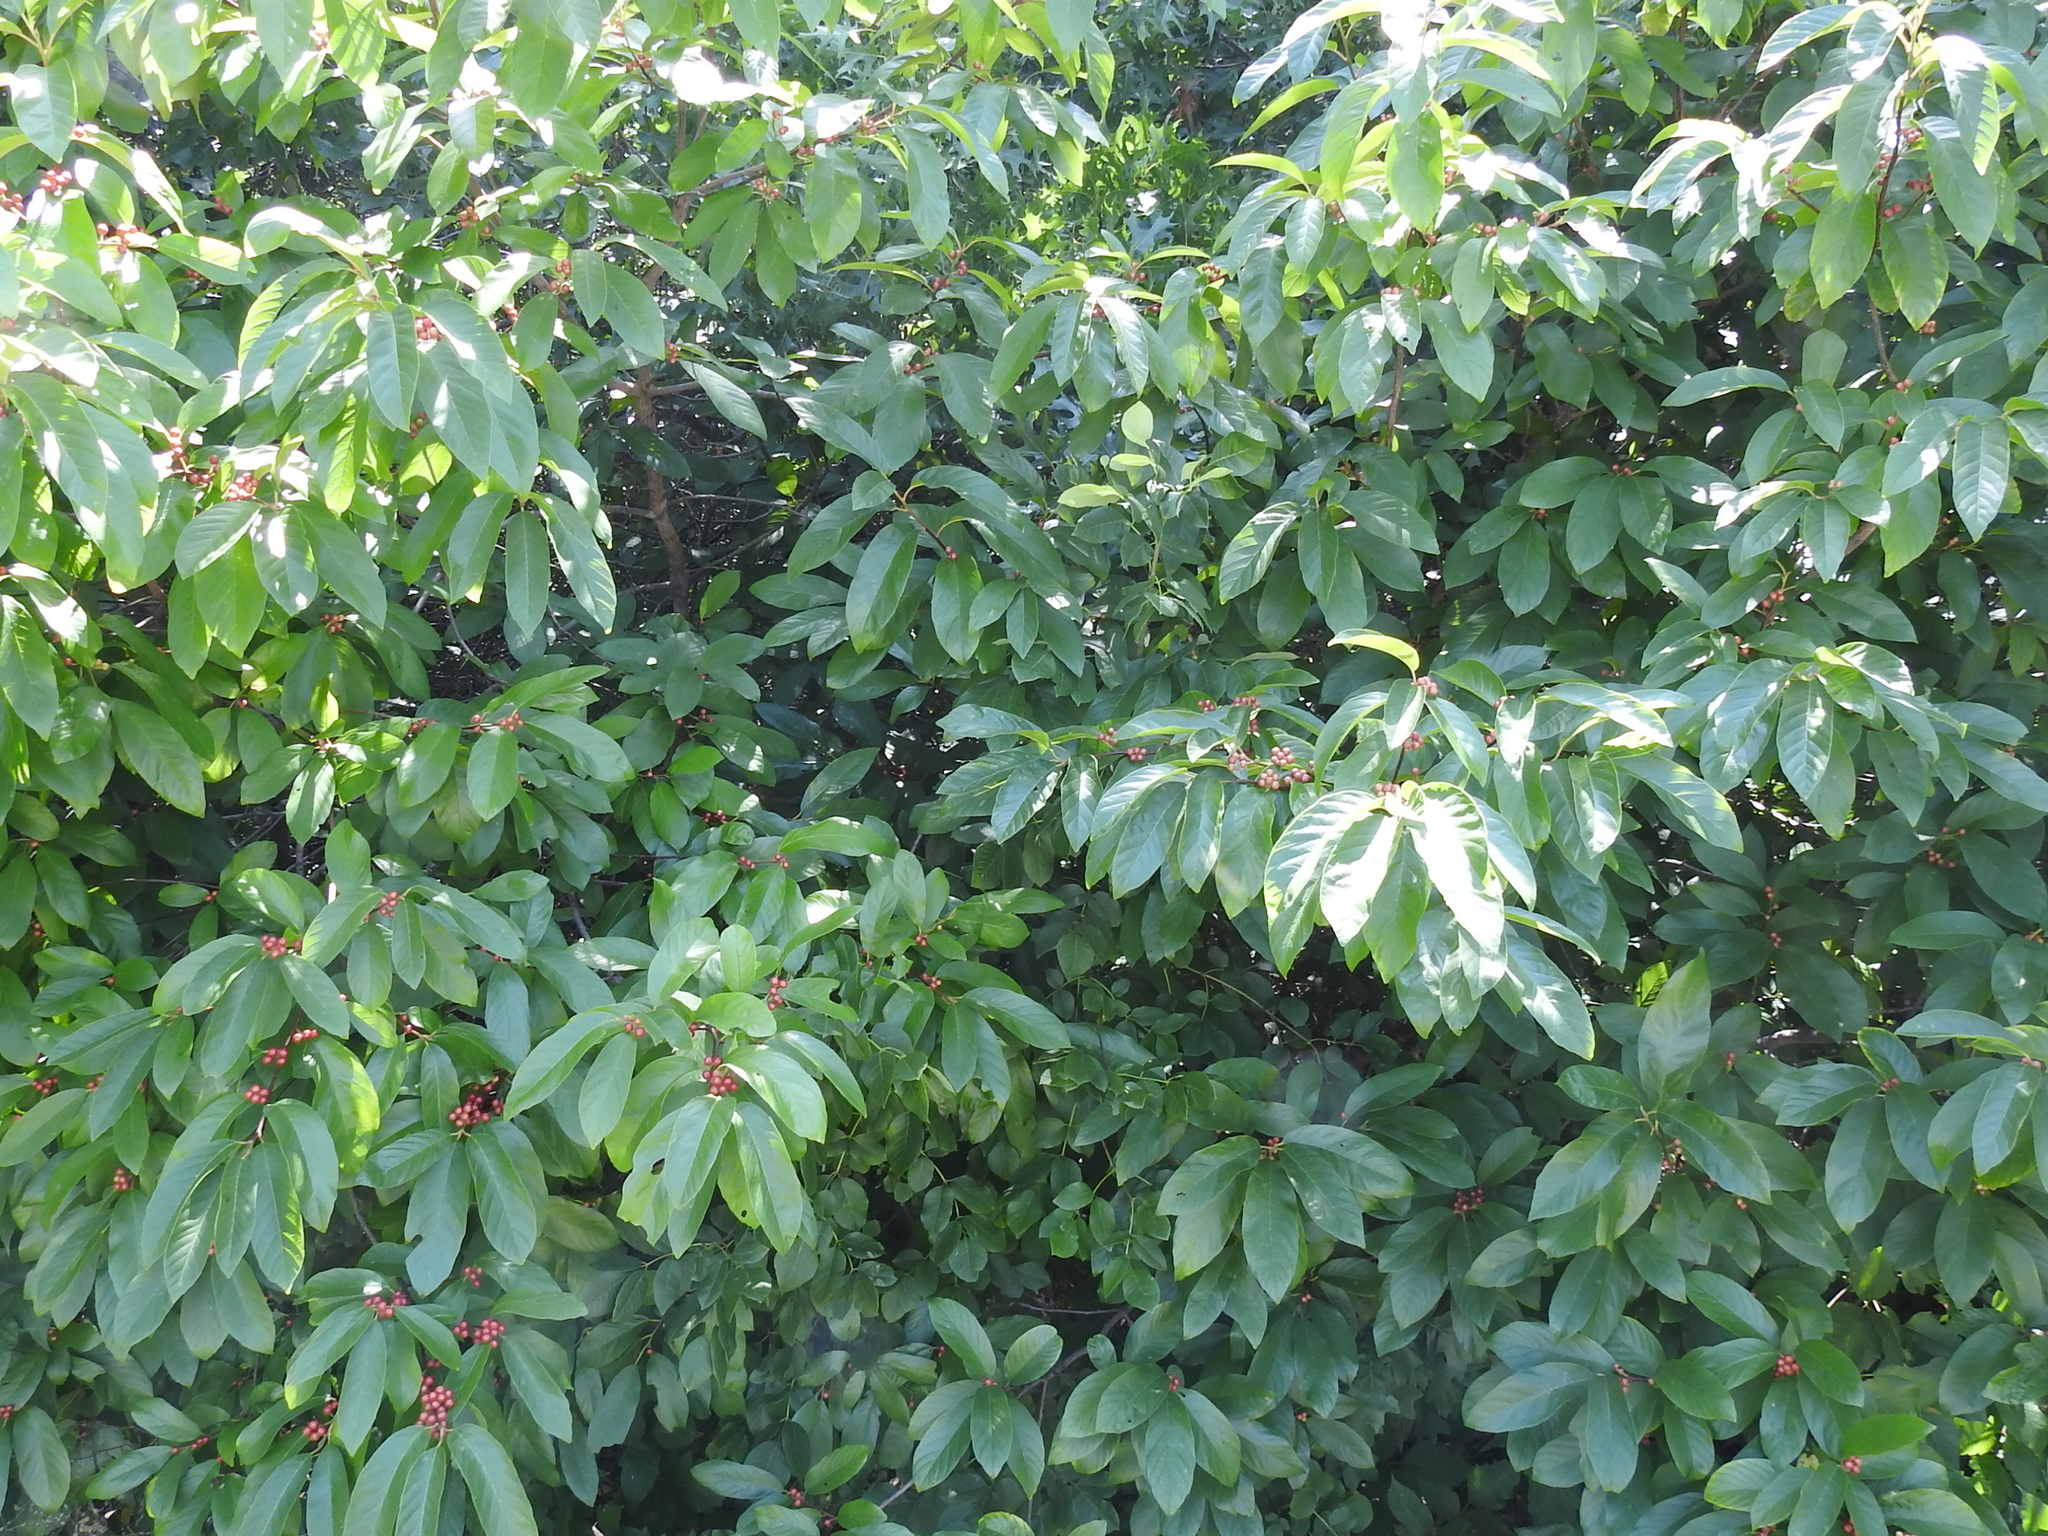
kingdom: Plantae
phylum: Tracheophyta
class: Magnoliopsida
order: Rosales
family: Rhamnaceae
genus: Frangula
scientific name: Frangula caroliniana
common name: Carolina buckthorn
